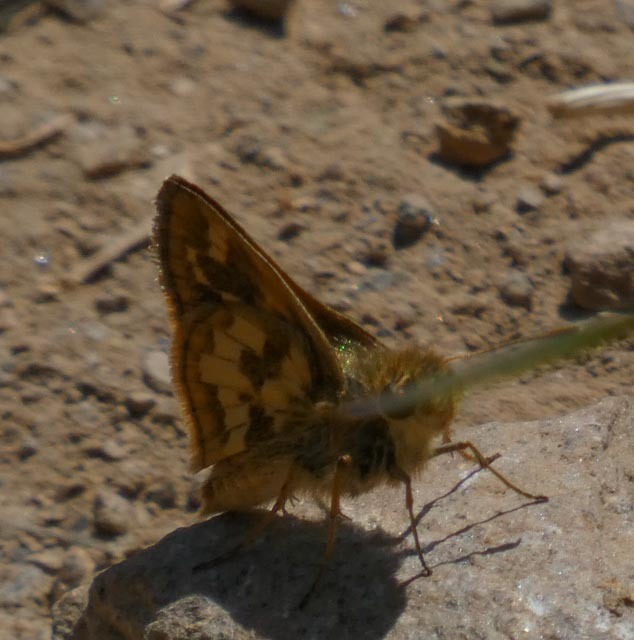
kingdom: Animalia
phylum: Arthropoda
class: Insecta
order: Lepidoptera
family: Hesperiidae
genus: Polites
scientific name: Polites coras
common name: Peck's skipper
